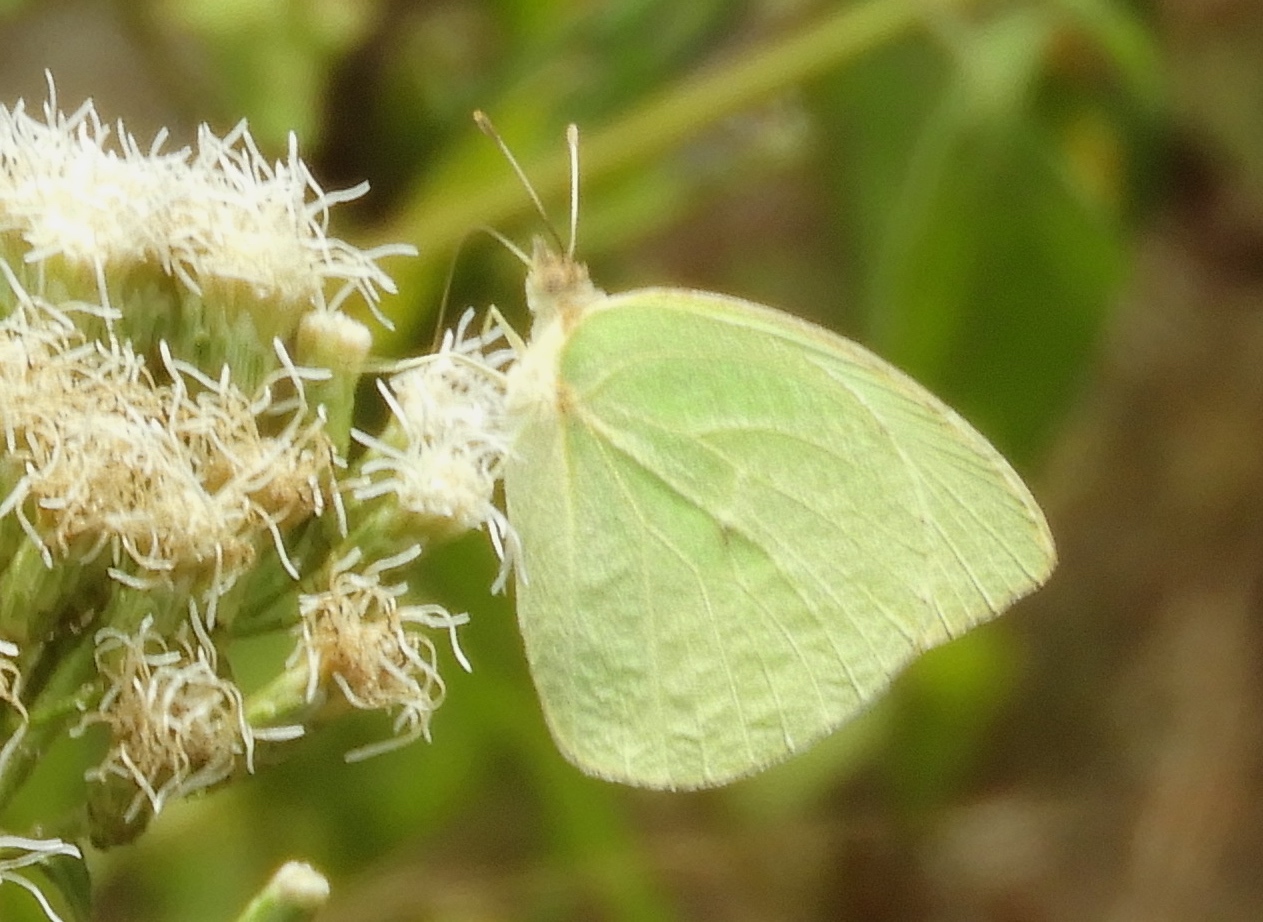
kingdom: Animalia
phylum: Arthropoda
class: Insecta
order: Lepidoptera
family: Pieridae
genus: Kricogonia
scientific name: Kricogonia lyside
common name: Guayacan sulphur,
